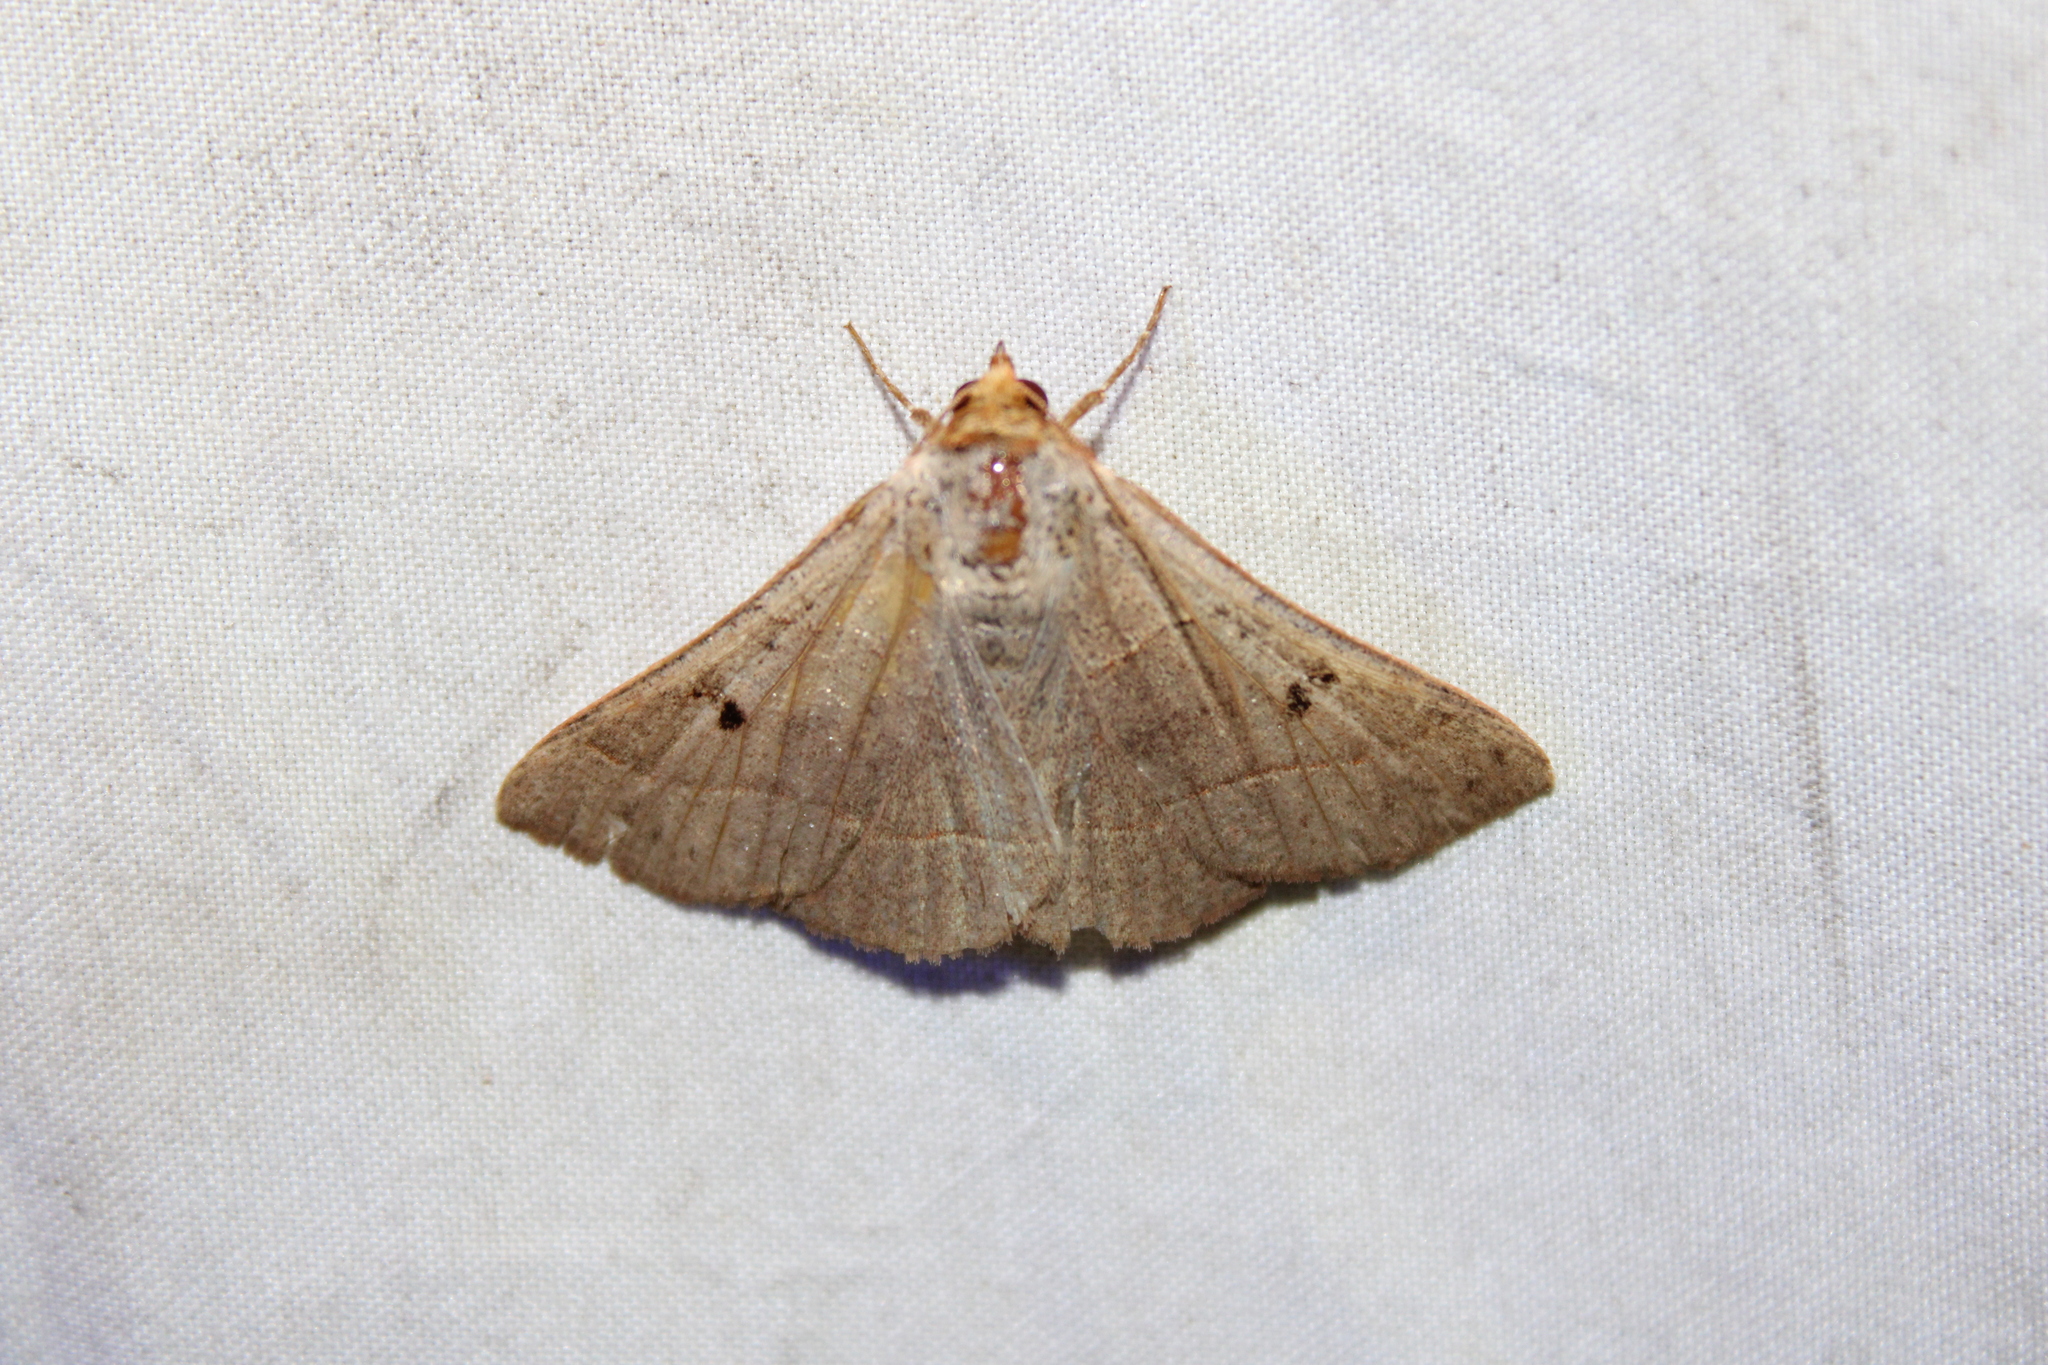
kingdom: Animalia
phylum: Arthropoda
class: Insecta
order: Lepidoptera
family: Erebidae
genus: Panopoda
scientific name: Panopoda rufimargo
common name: Red-lined panopoda moth
